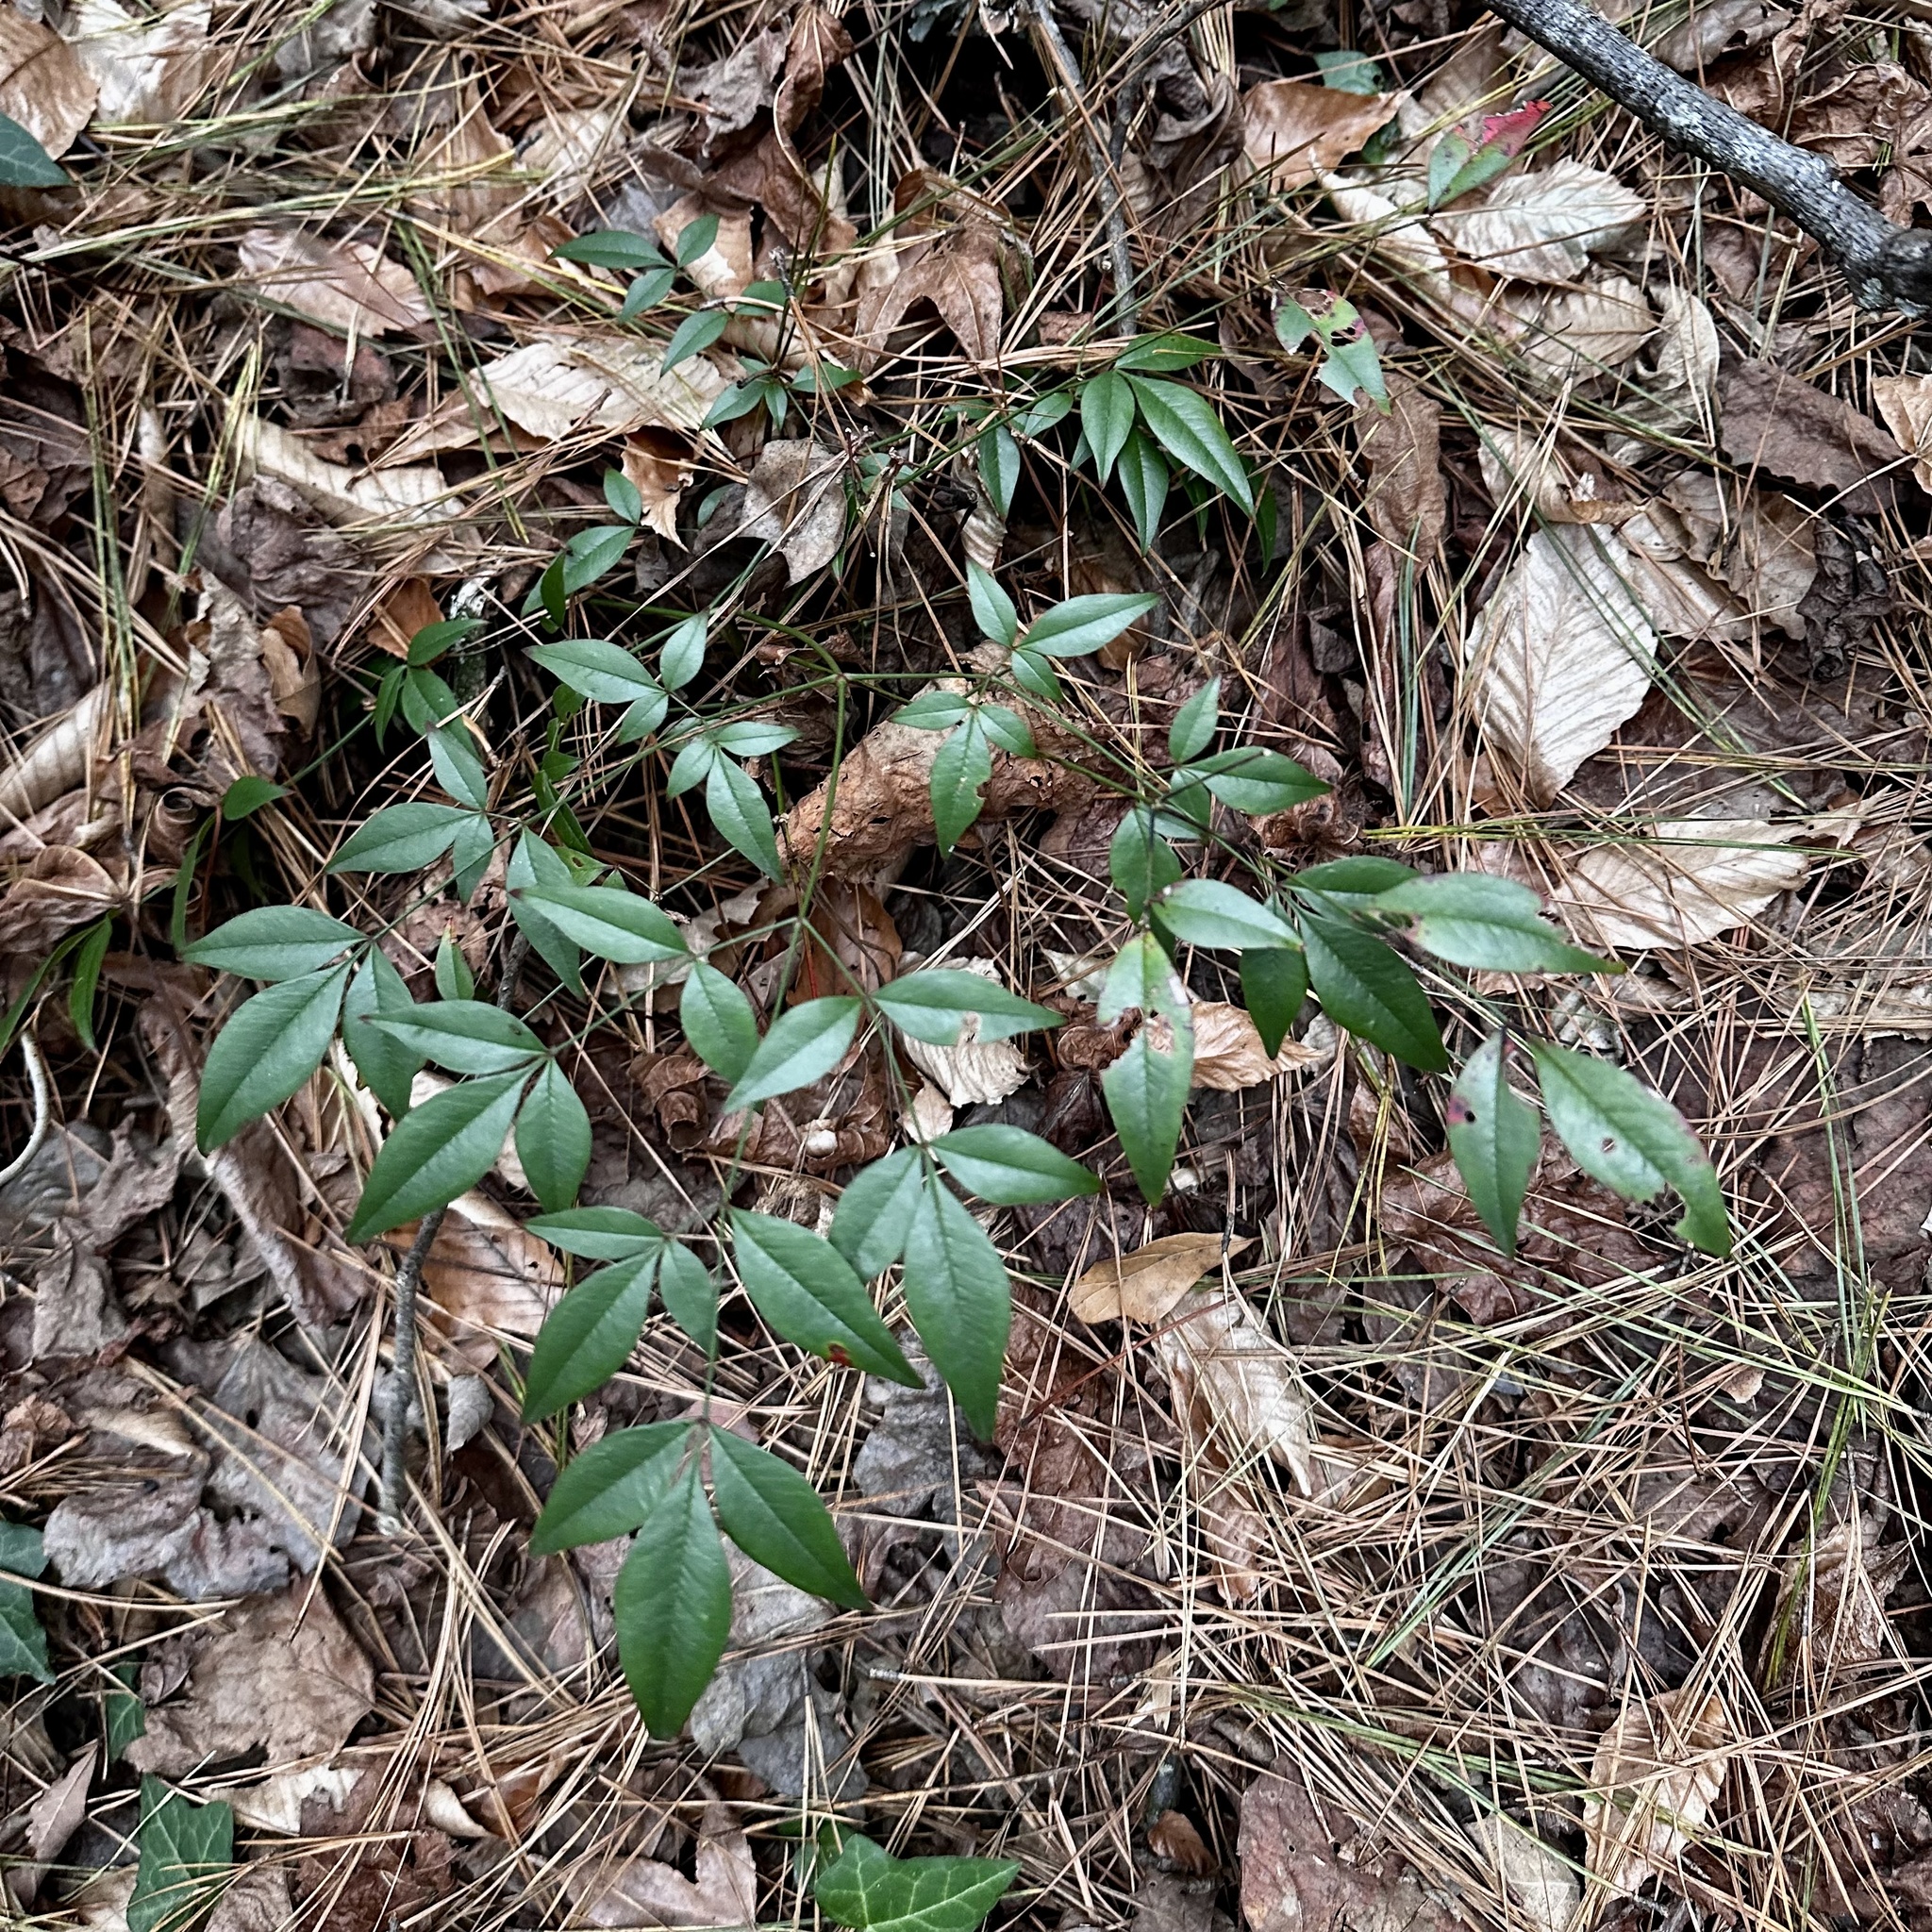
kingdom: Plantae
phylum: Tracheophyta
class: Magnoliopsida
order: Ranunculales
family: Berberidaceae
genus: Nandina
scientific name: Nandina domestica
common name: Sacred bamboo
